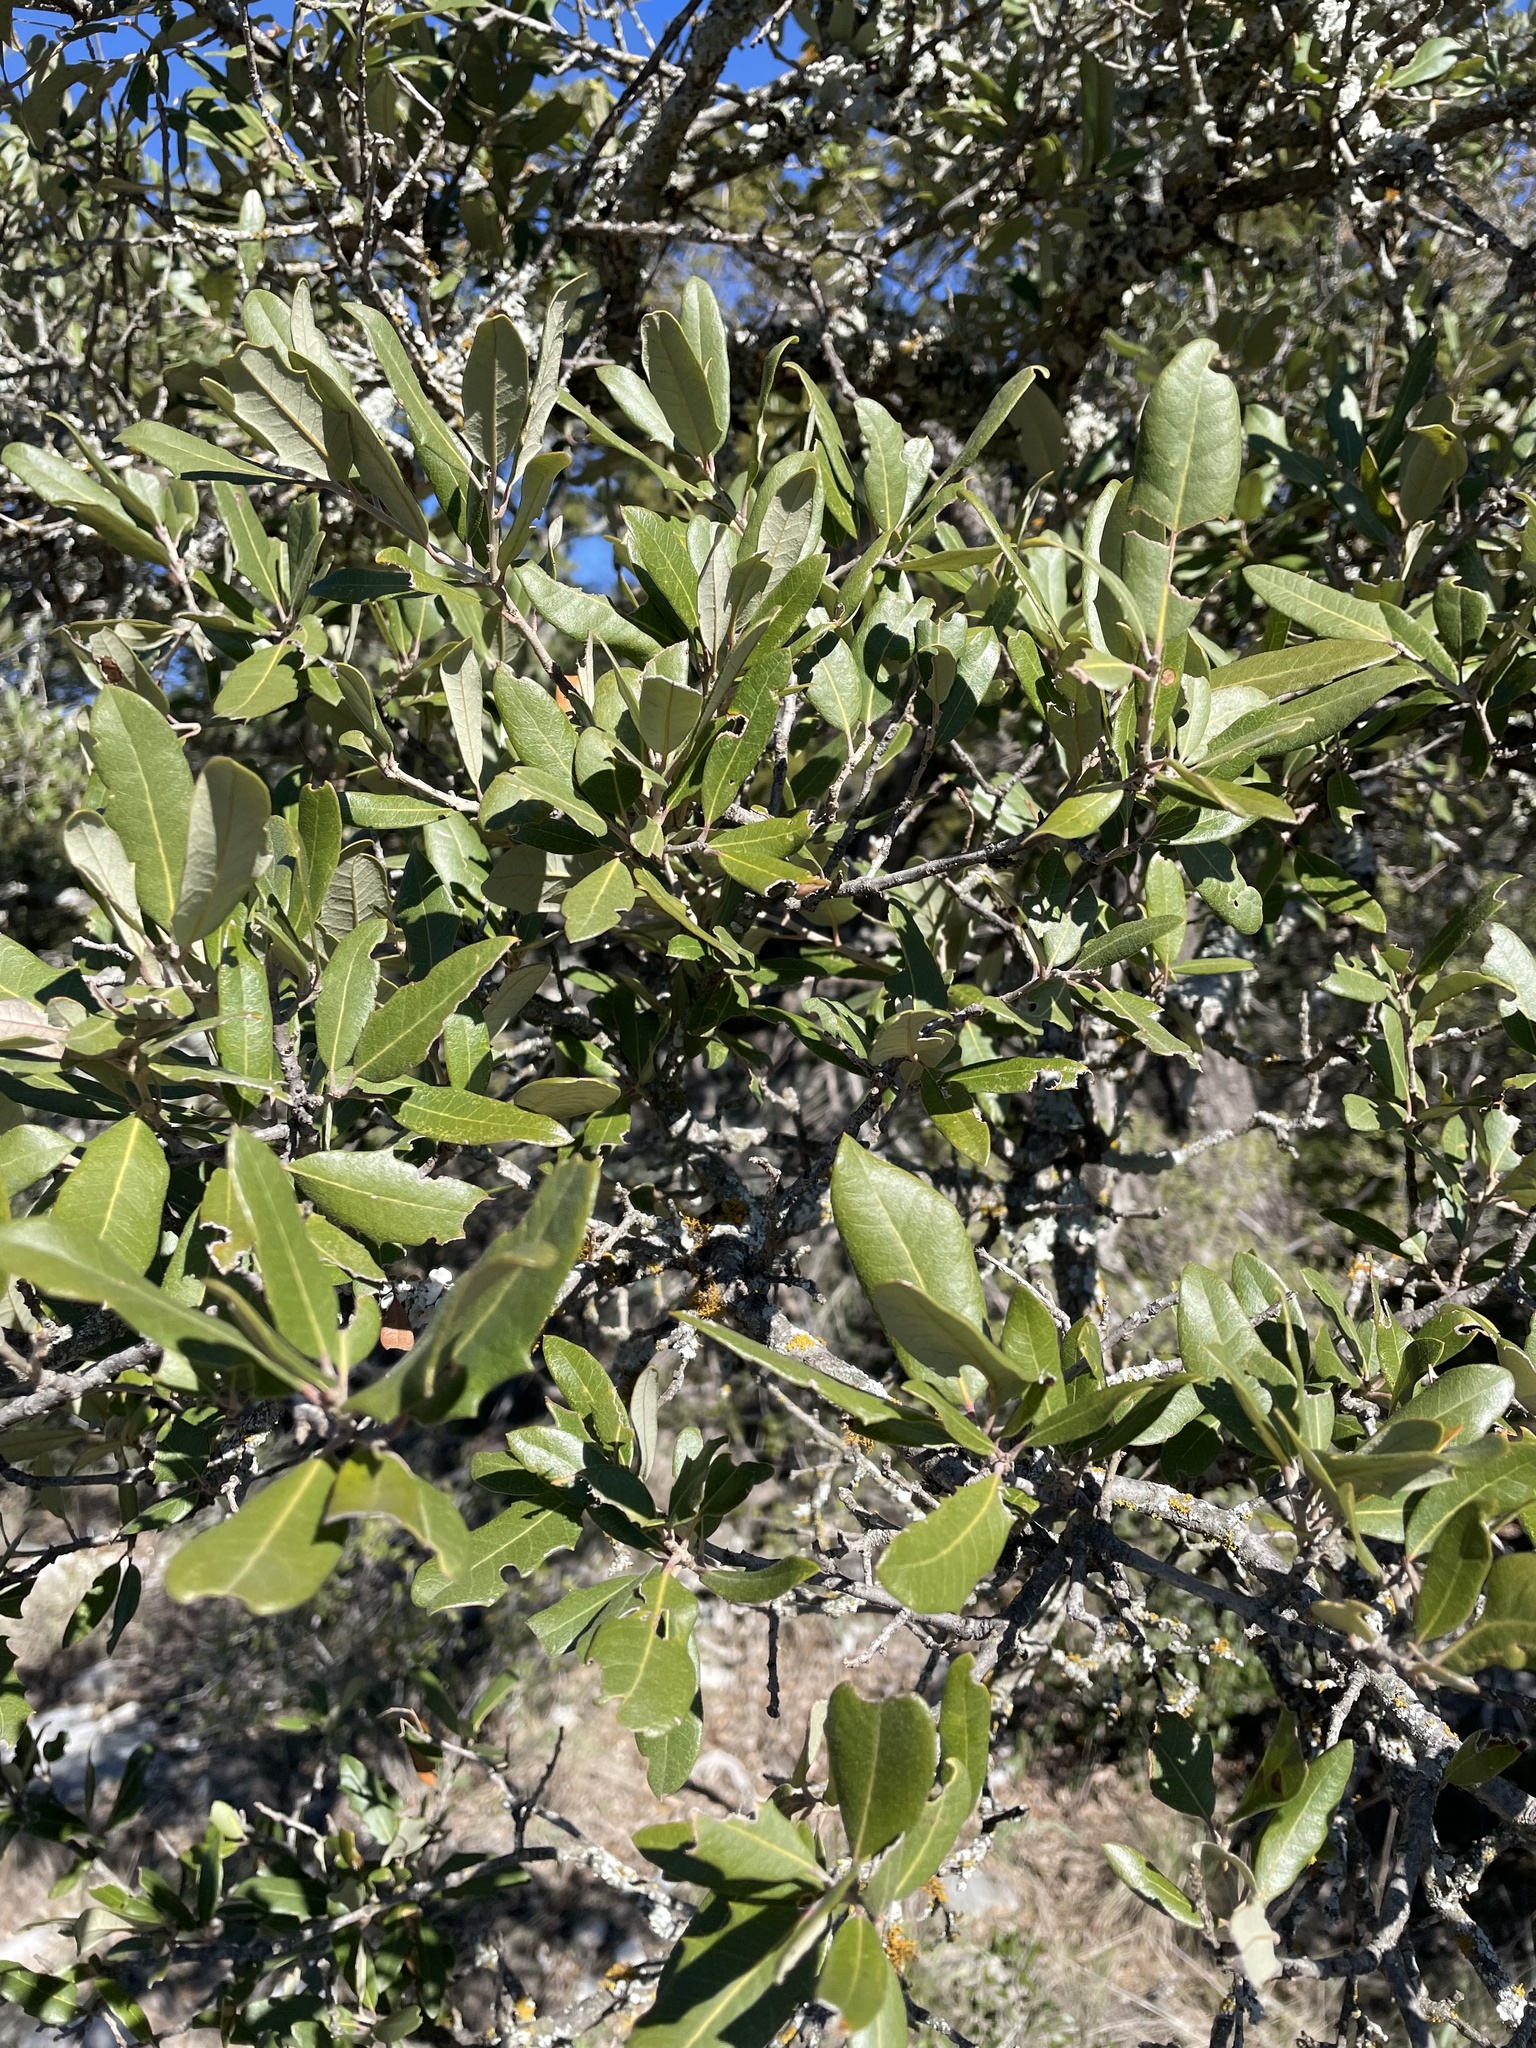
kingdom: Plantae
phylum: Tracheophyta
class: Magnoliopsida
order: Fagales
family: Fagaceae
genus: Quercus
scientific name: Quercus fusiformis
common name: Texas live oak
